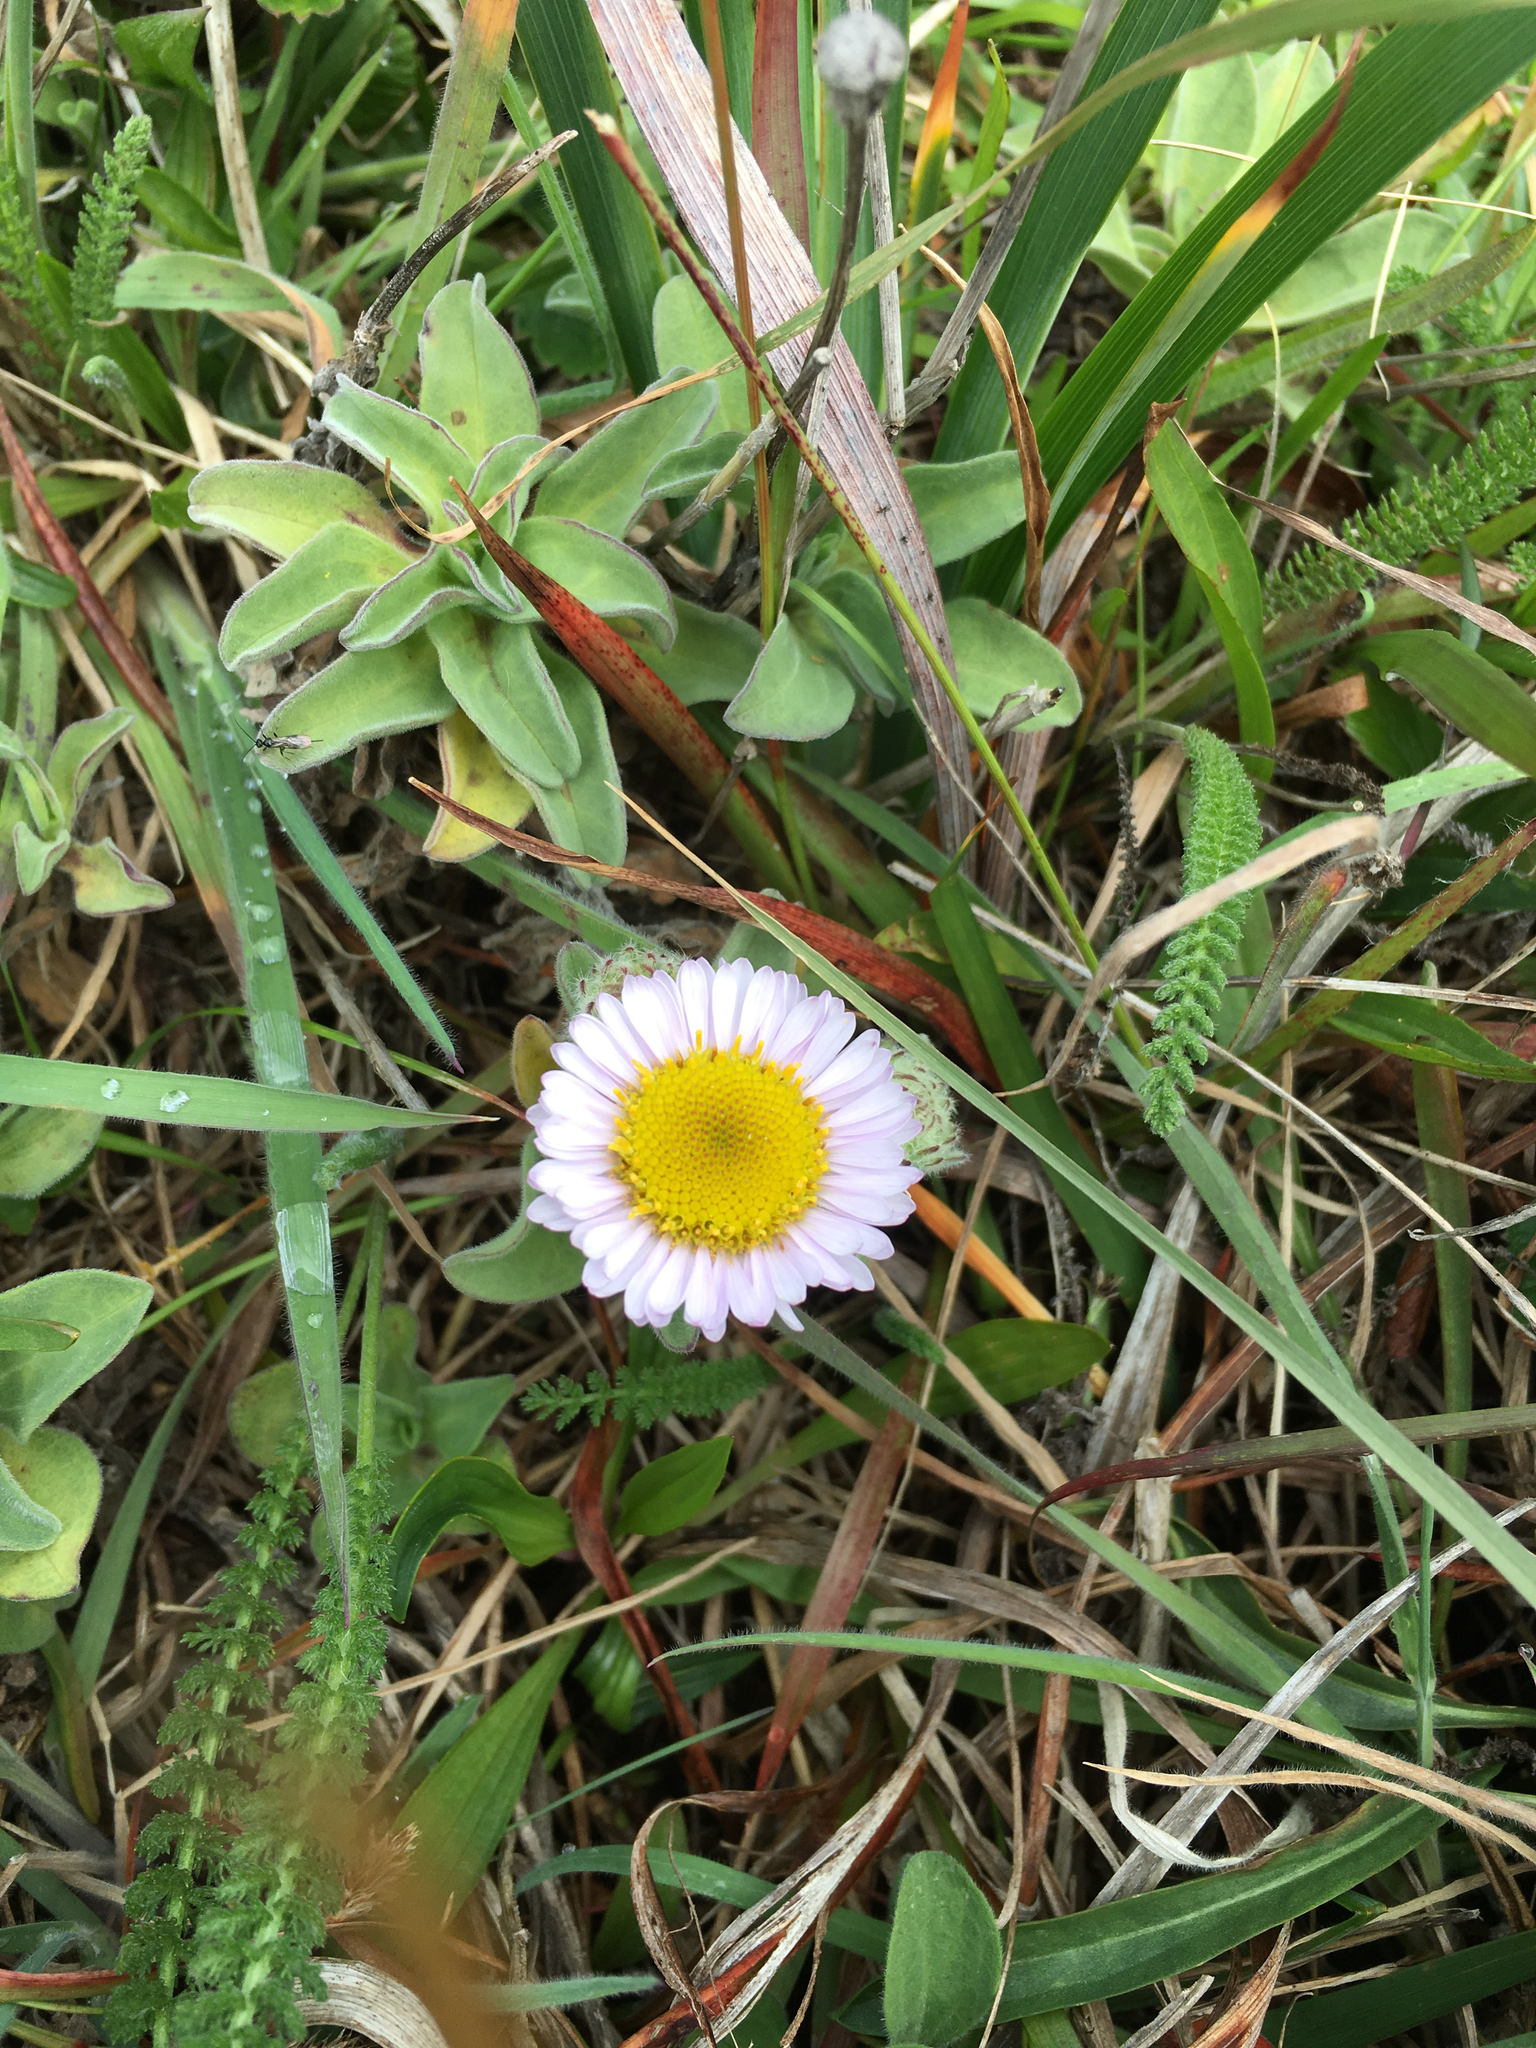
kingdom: Plantae
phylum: Tracheophyta
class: Magnoliopsida
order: Asterales
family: Asteraceae
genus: Erigeron
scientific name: Erigeron glaucus
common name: Seaside daisy
